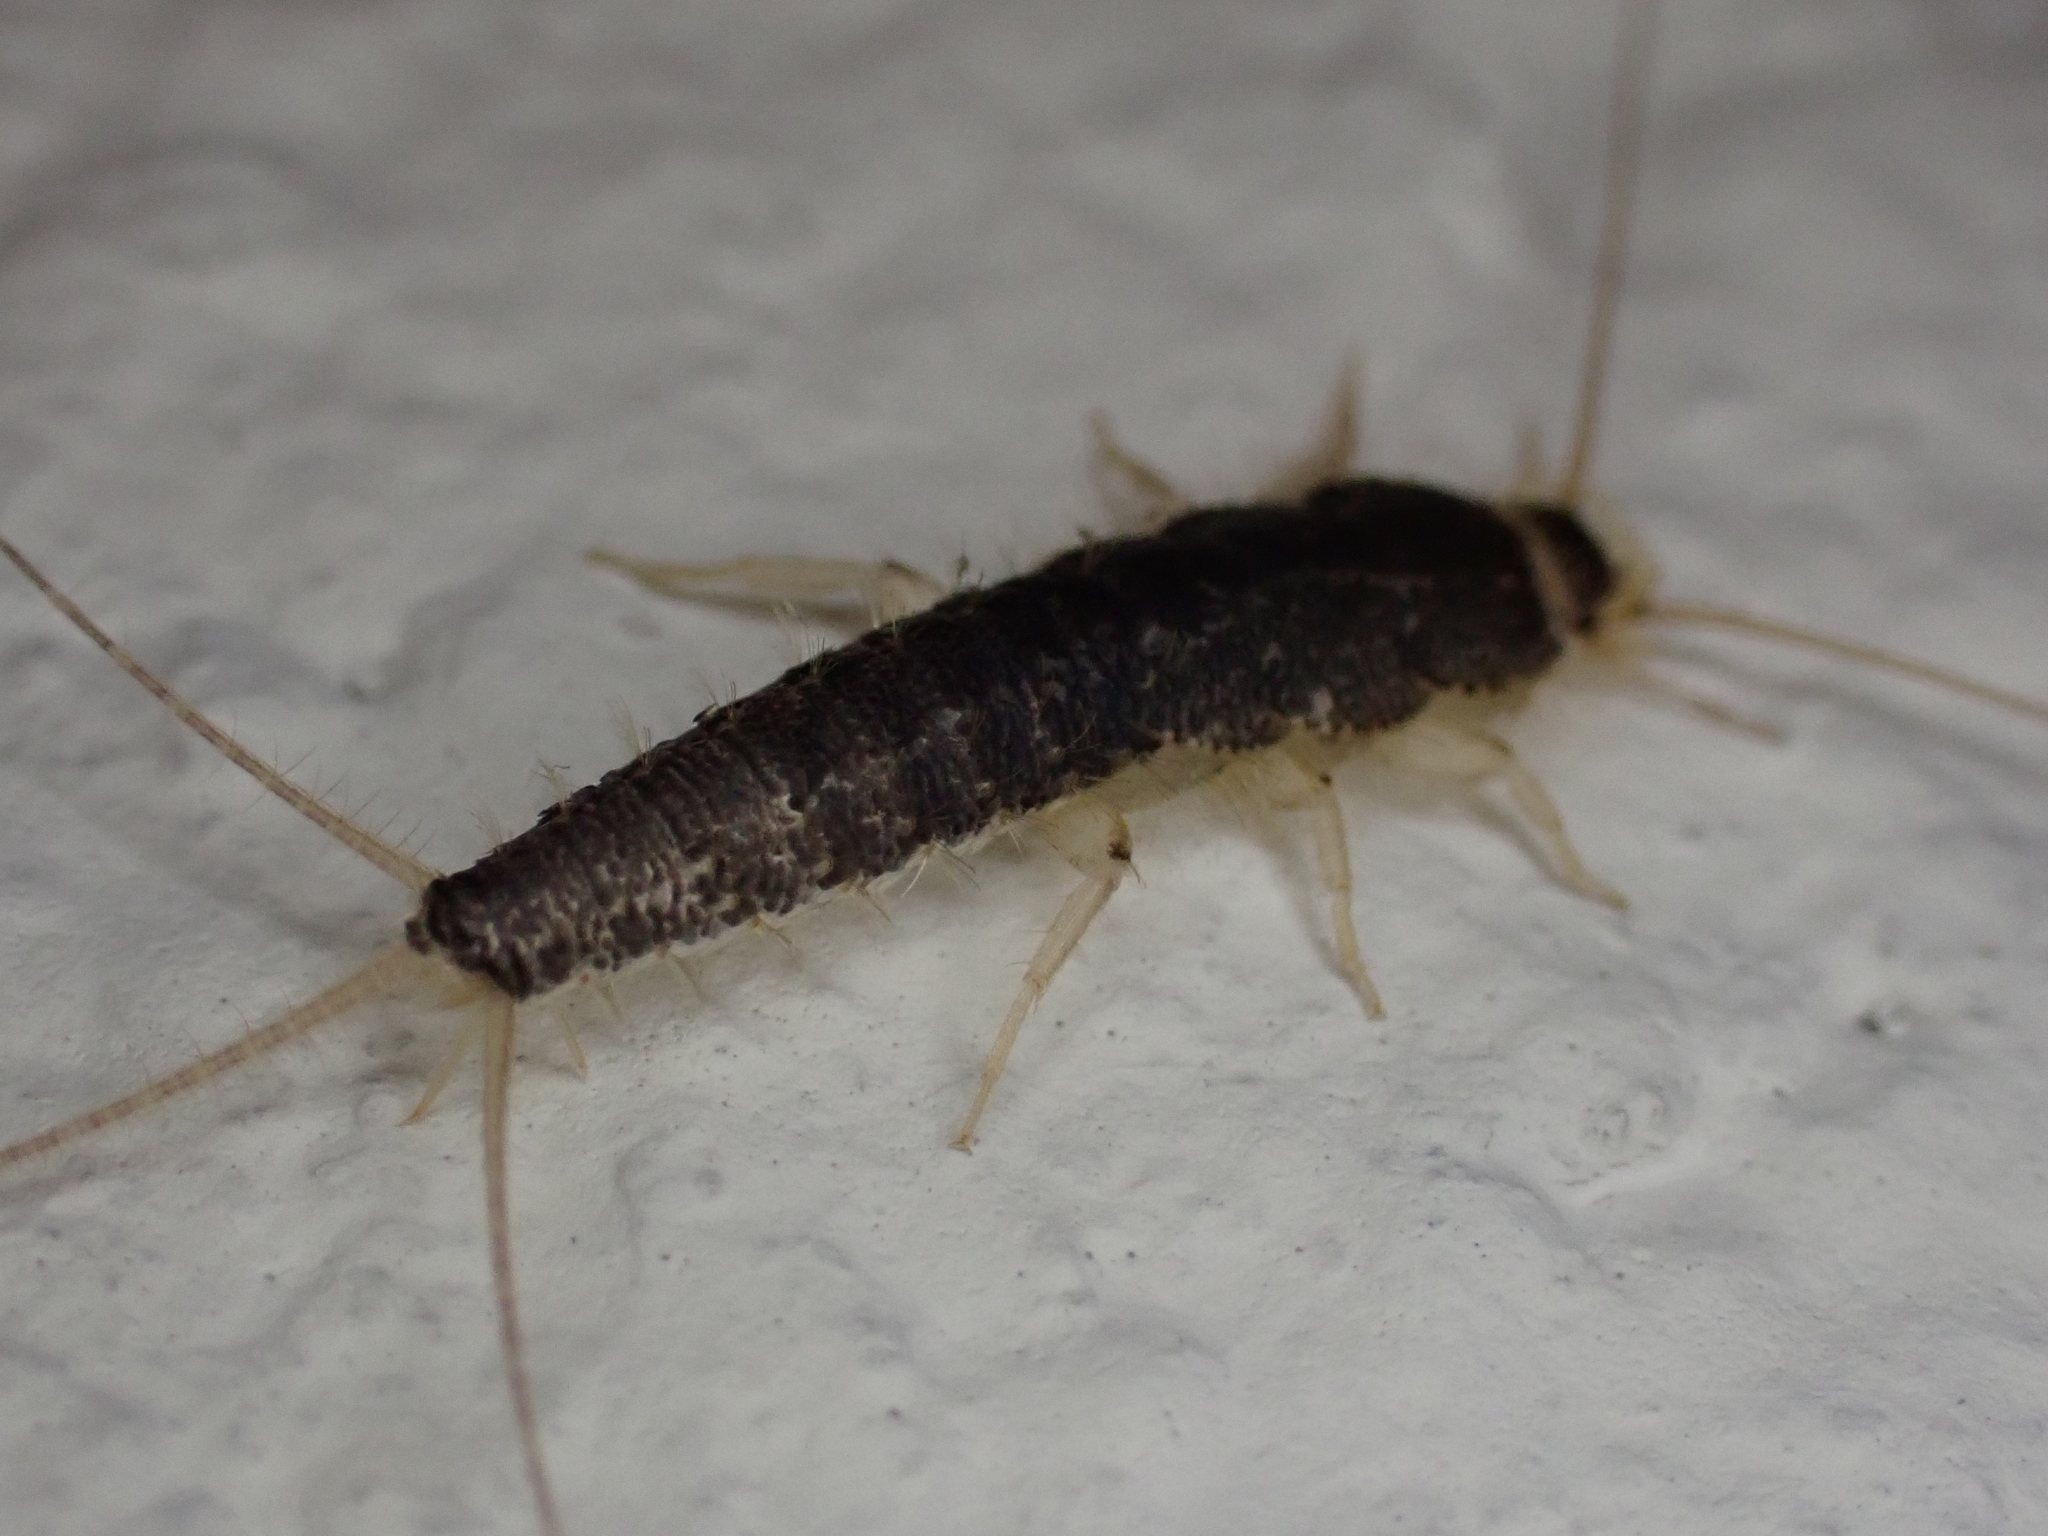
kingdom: Animalia
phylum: Arthropoda
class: Insecta
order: Zygentoma
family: Lepismatidae
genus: Ctenolepisma
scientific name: Ctenolepisma longicaudatum
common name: Silverfish
